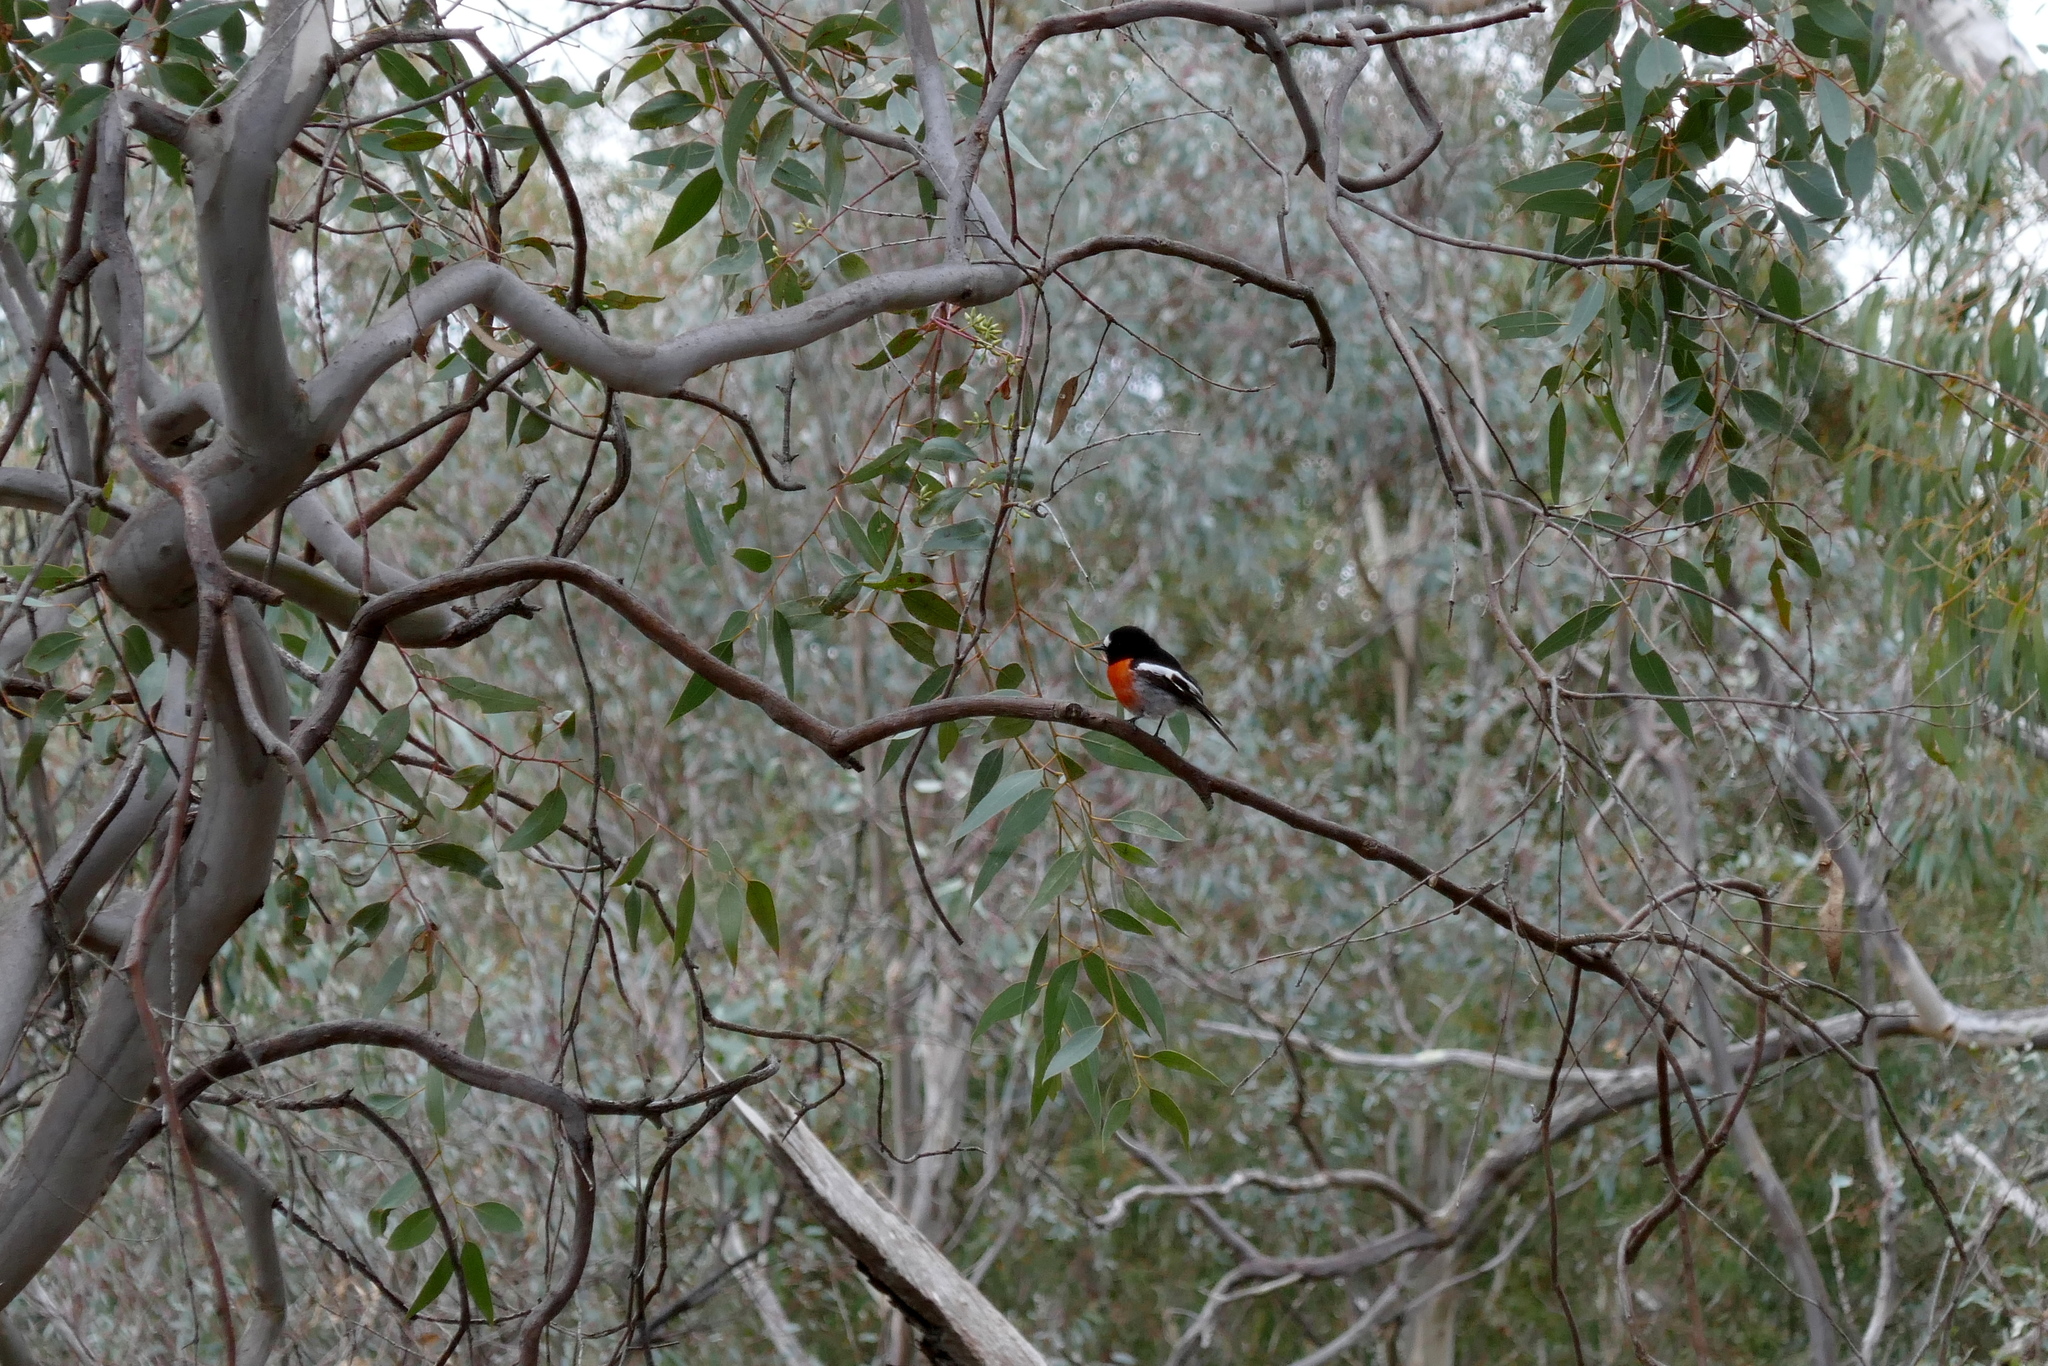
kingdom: Animalia
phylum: Chordata
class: Aves
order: Passeriformes
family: Petroicidae
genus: Petroica
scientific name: Petroica boodang
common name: Scarlet robin
